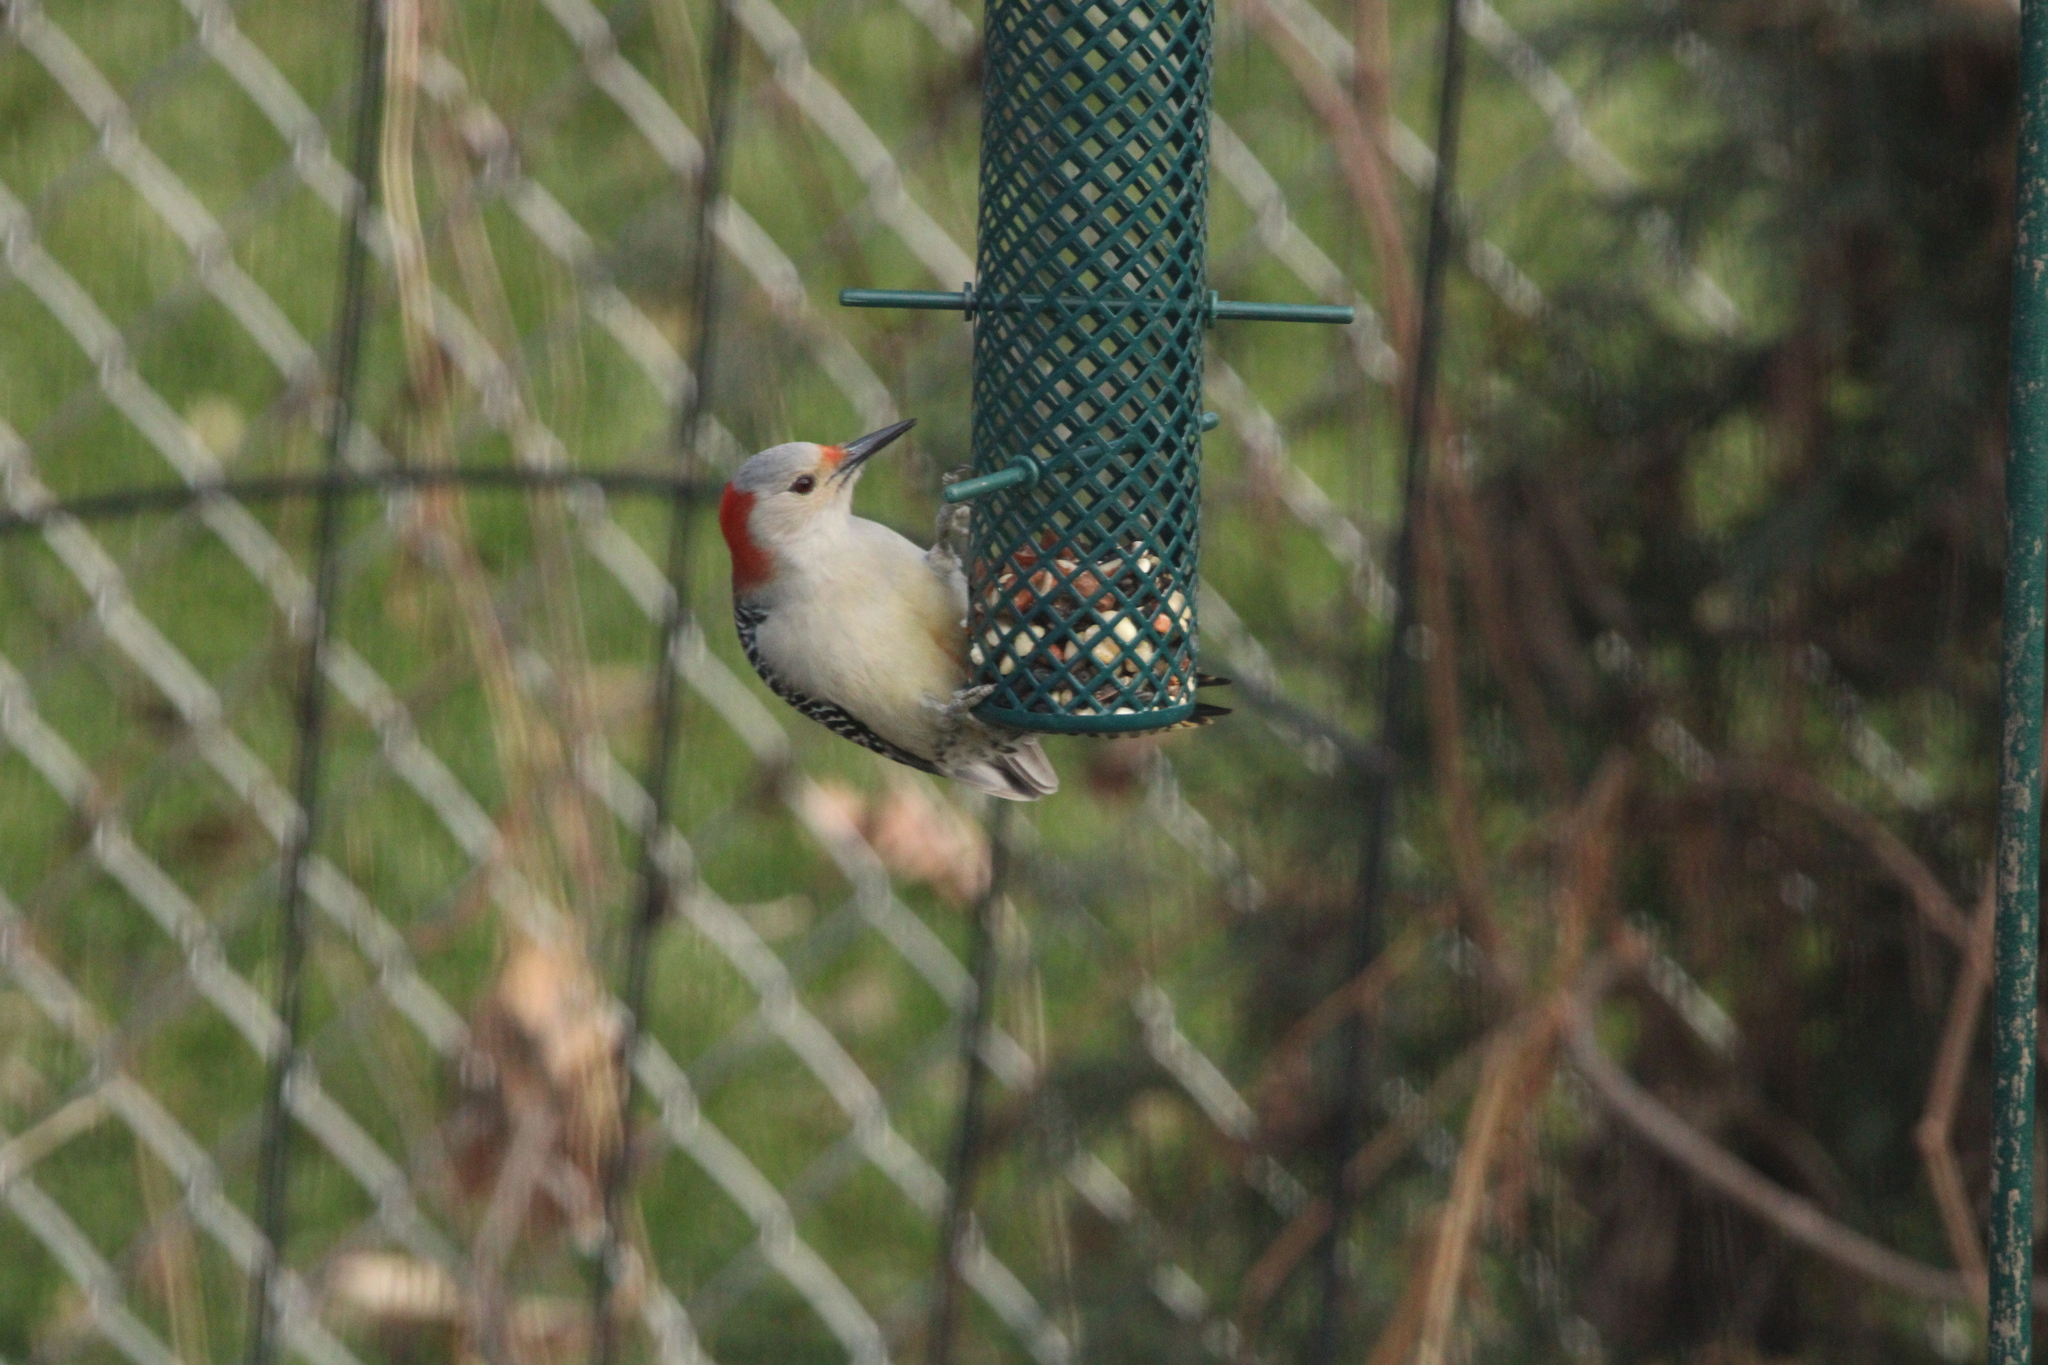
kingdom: Animalia
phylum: Chordata
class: Aves
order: Piciformes
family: Picidae
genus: Melanerpes
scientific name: Melanerpes carolinus
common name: Red-bellied woodpecker
